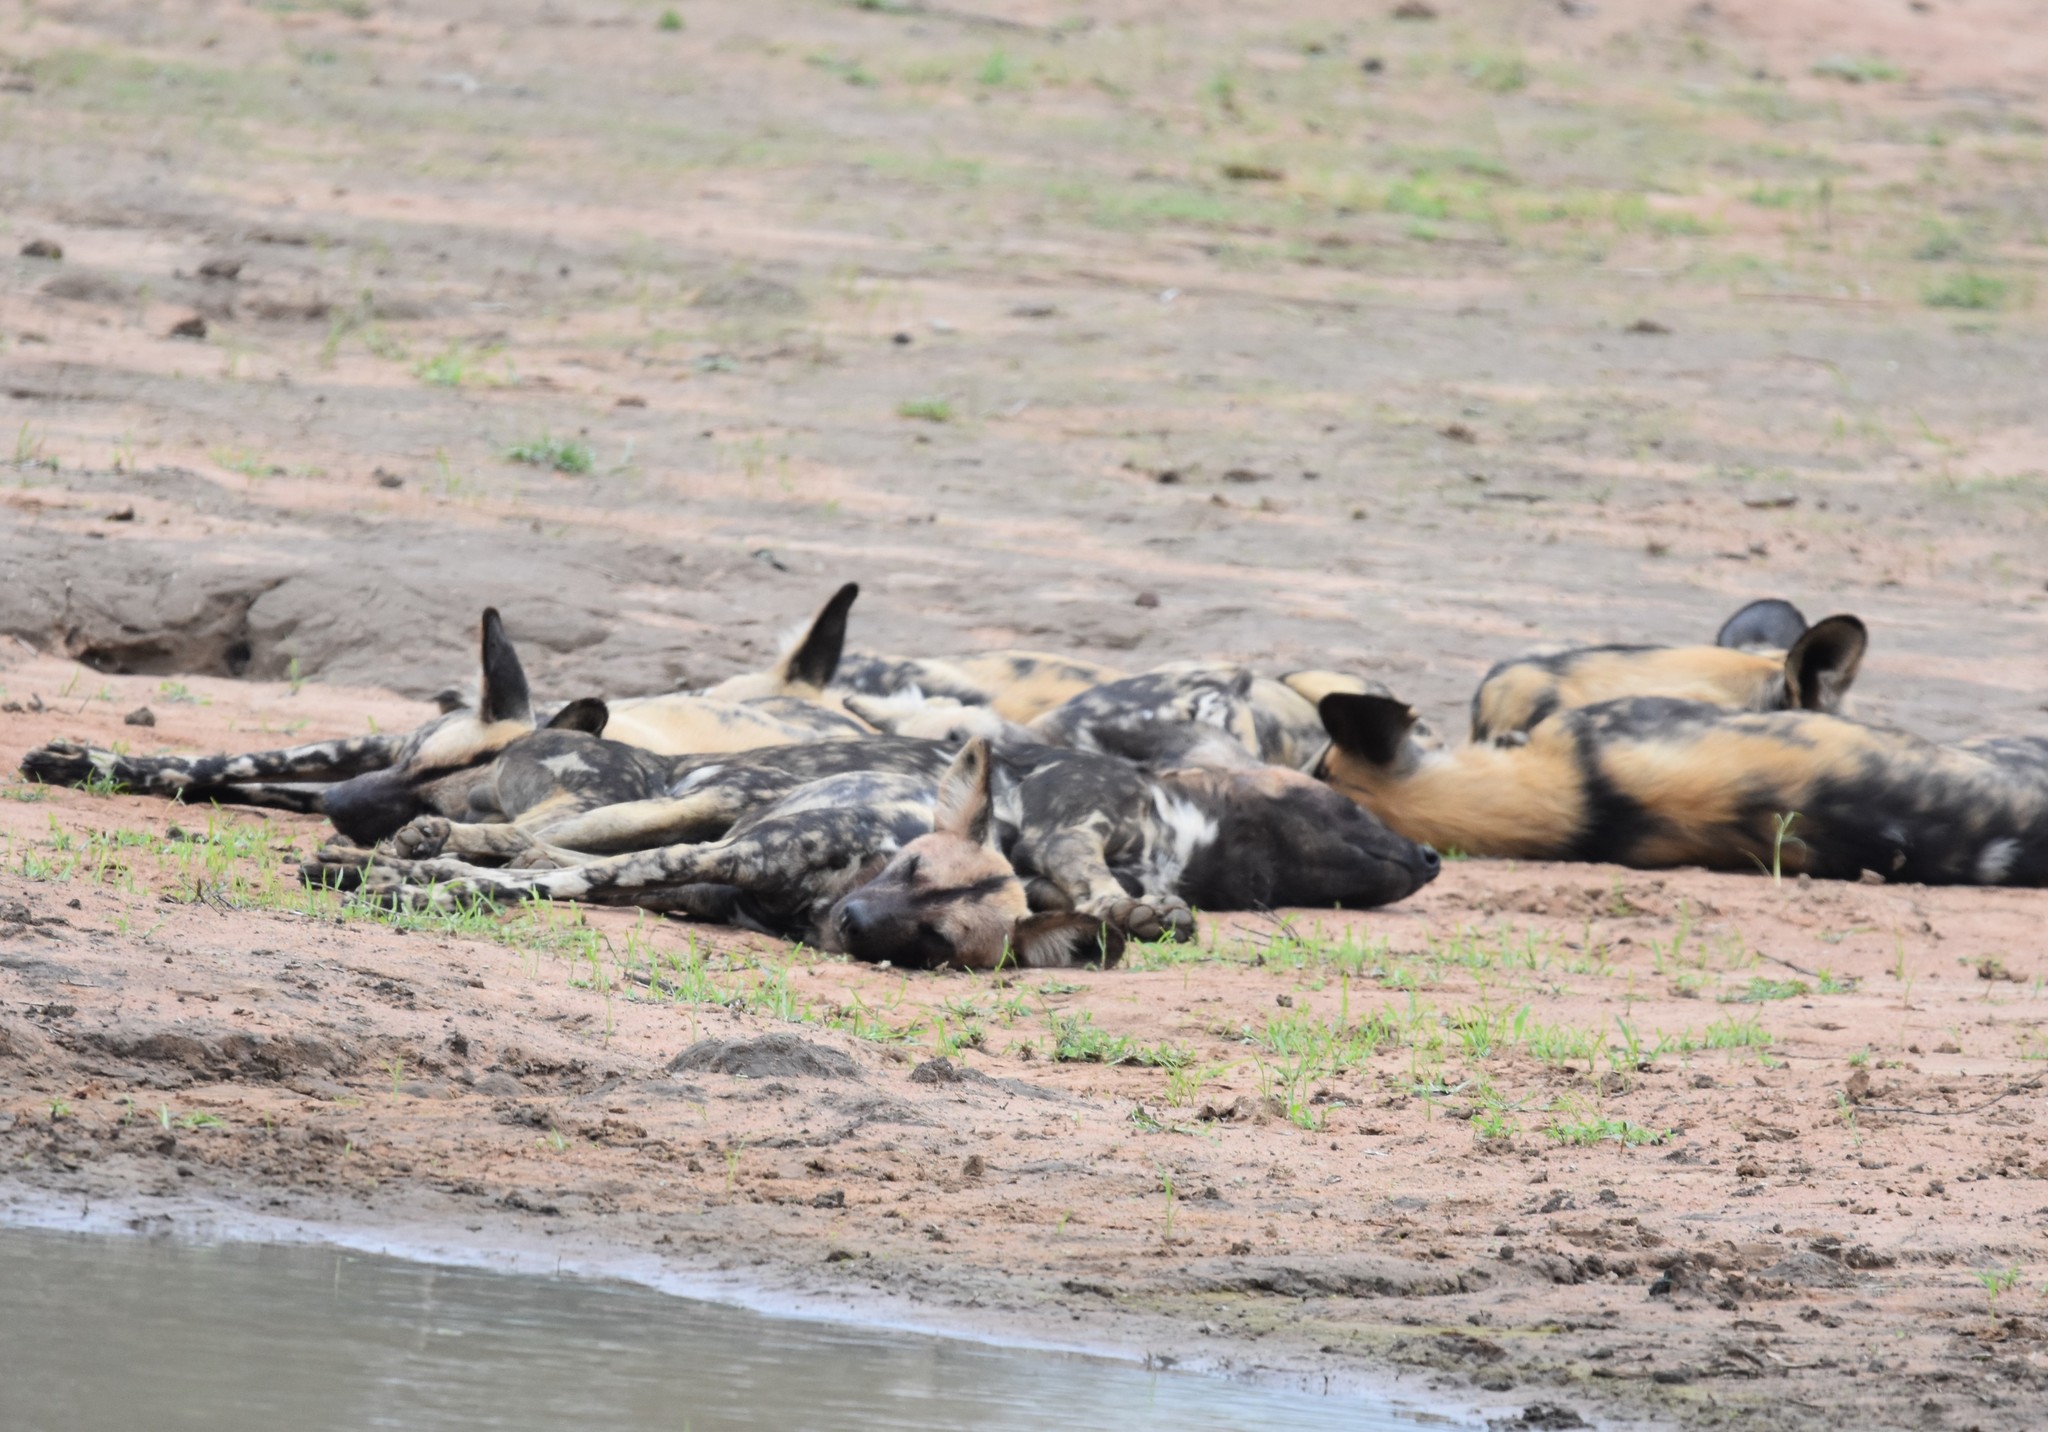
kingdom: Animalia
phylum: Chordata
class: Mammalia
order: Carnivora
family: Canidae
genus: Lycaon
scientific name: Lycaon pictus
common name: African wild dog
